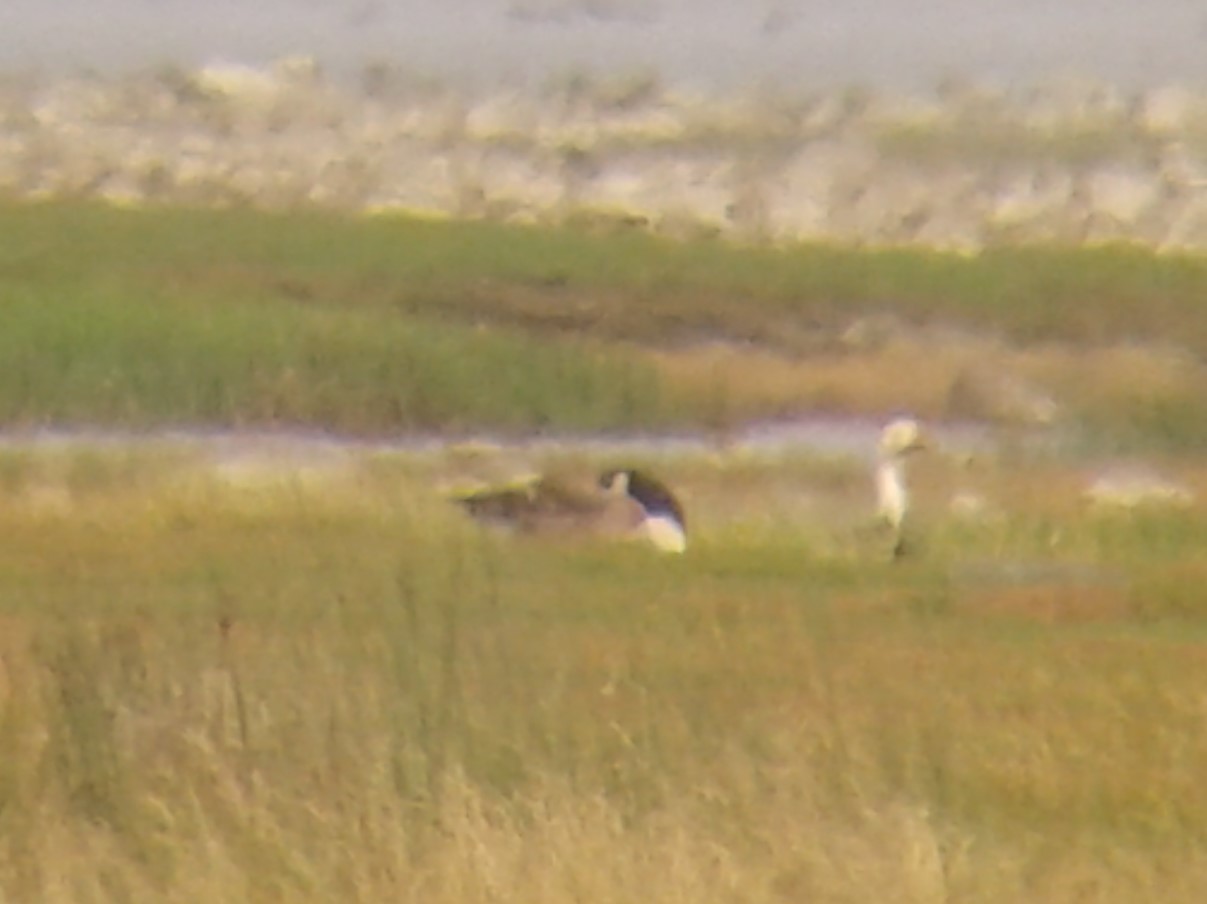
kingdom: Animalia
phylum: Chordata
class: Aves
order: Anseriformes
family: Anatidae
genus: Branta
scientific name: Branta canadensis
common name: Canada goose
